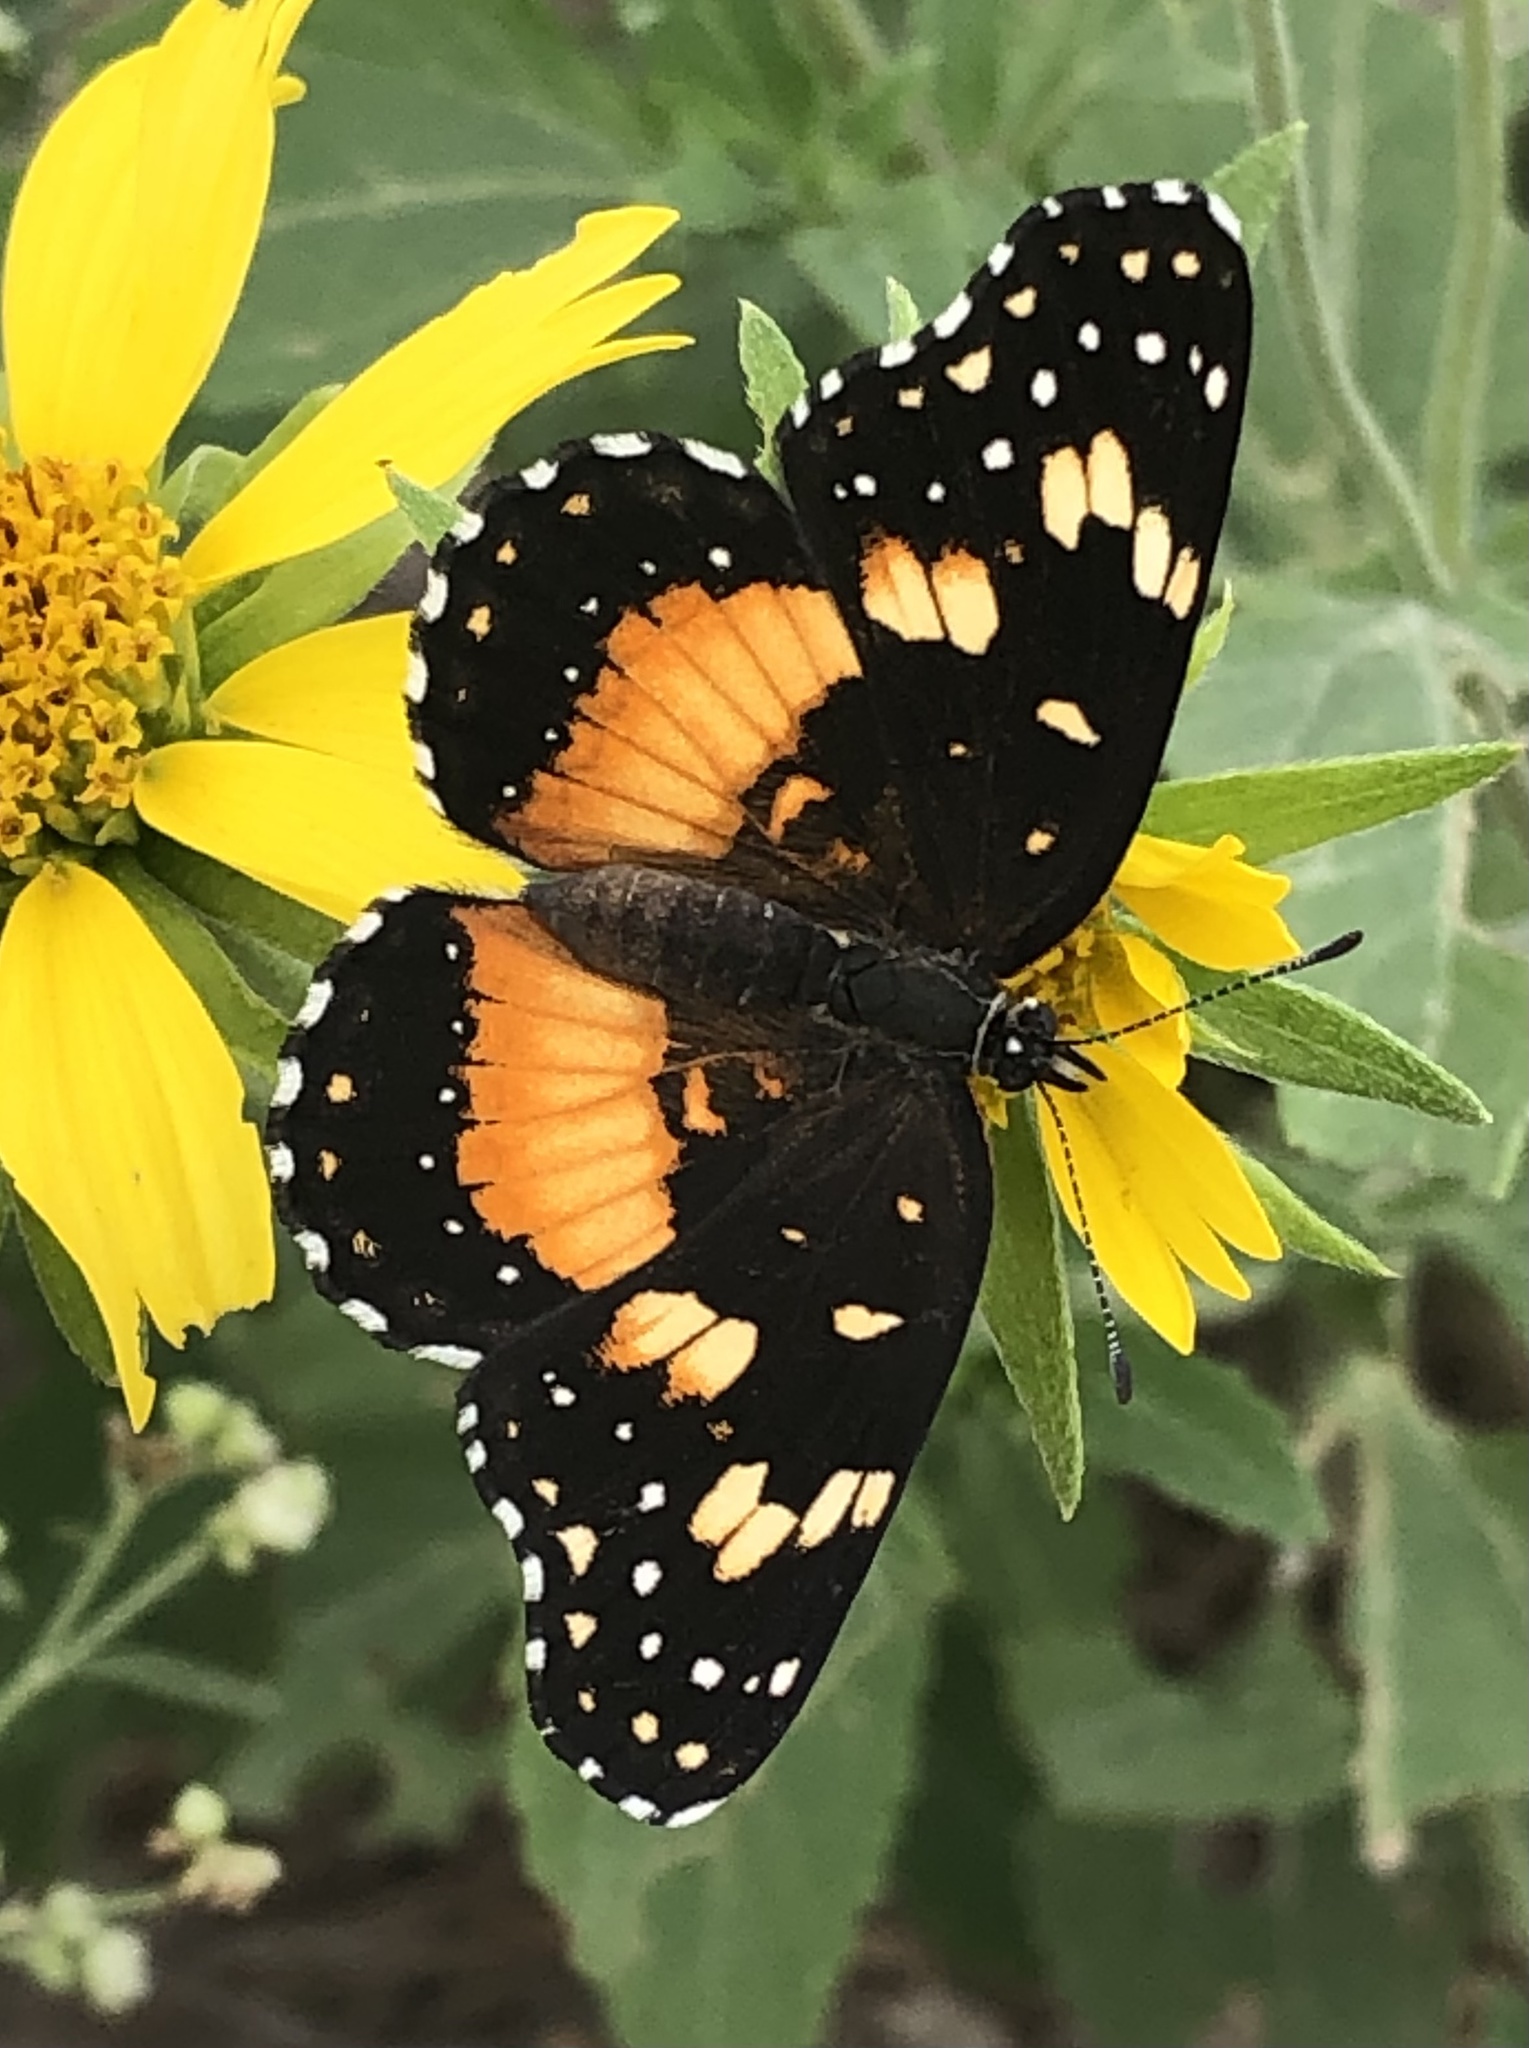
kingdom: Animalia
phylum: Arthropoda
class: Insecta
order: Lepidoptera
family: Nymphalidae
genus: Chlosyne
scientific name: Chlosyne lacinia
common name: Bordered patch
